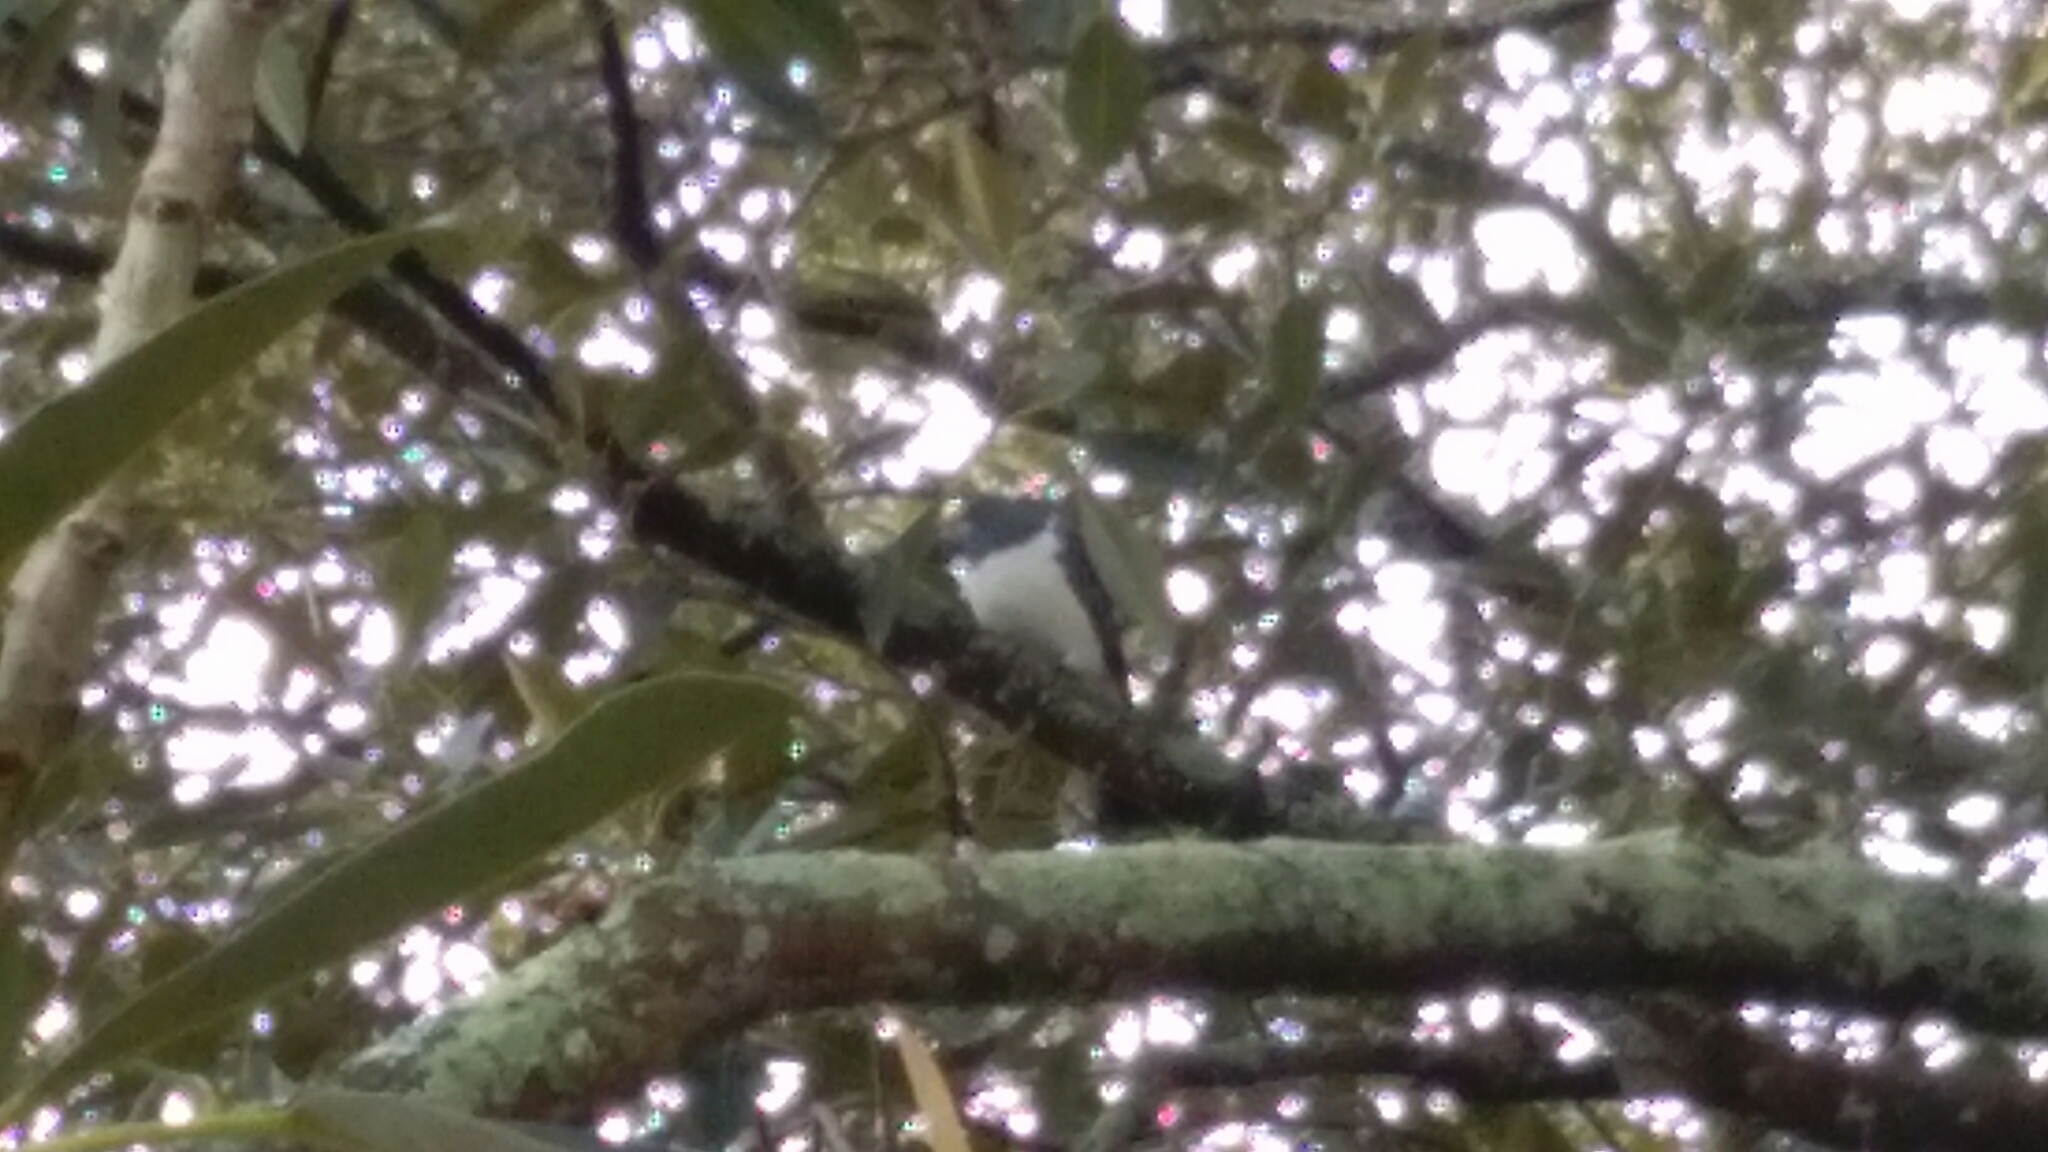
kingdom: Animalia
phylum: Chordata
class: Aves
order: Columbiformes
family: Columbidae
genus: Hemiphaga
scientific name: Hemiphaga novaeseelandiae
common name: New zealand pigeon
